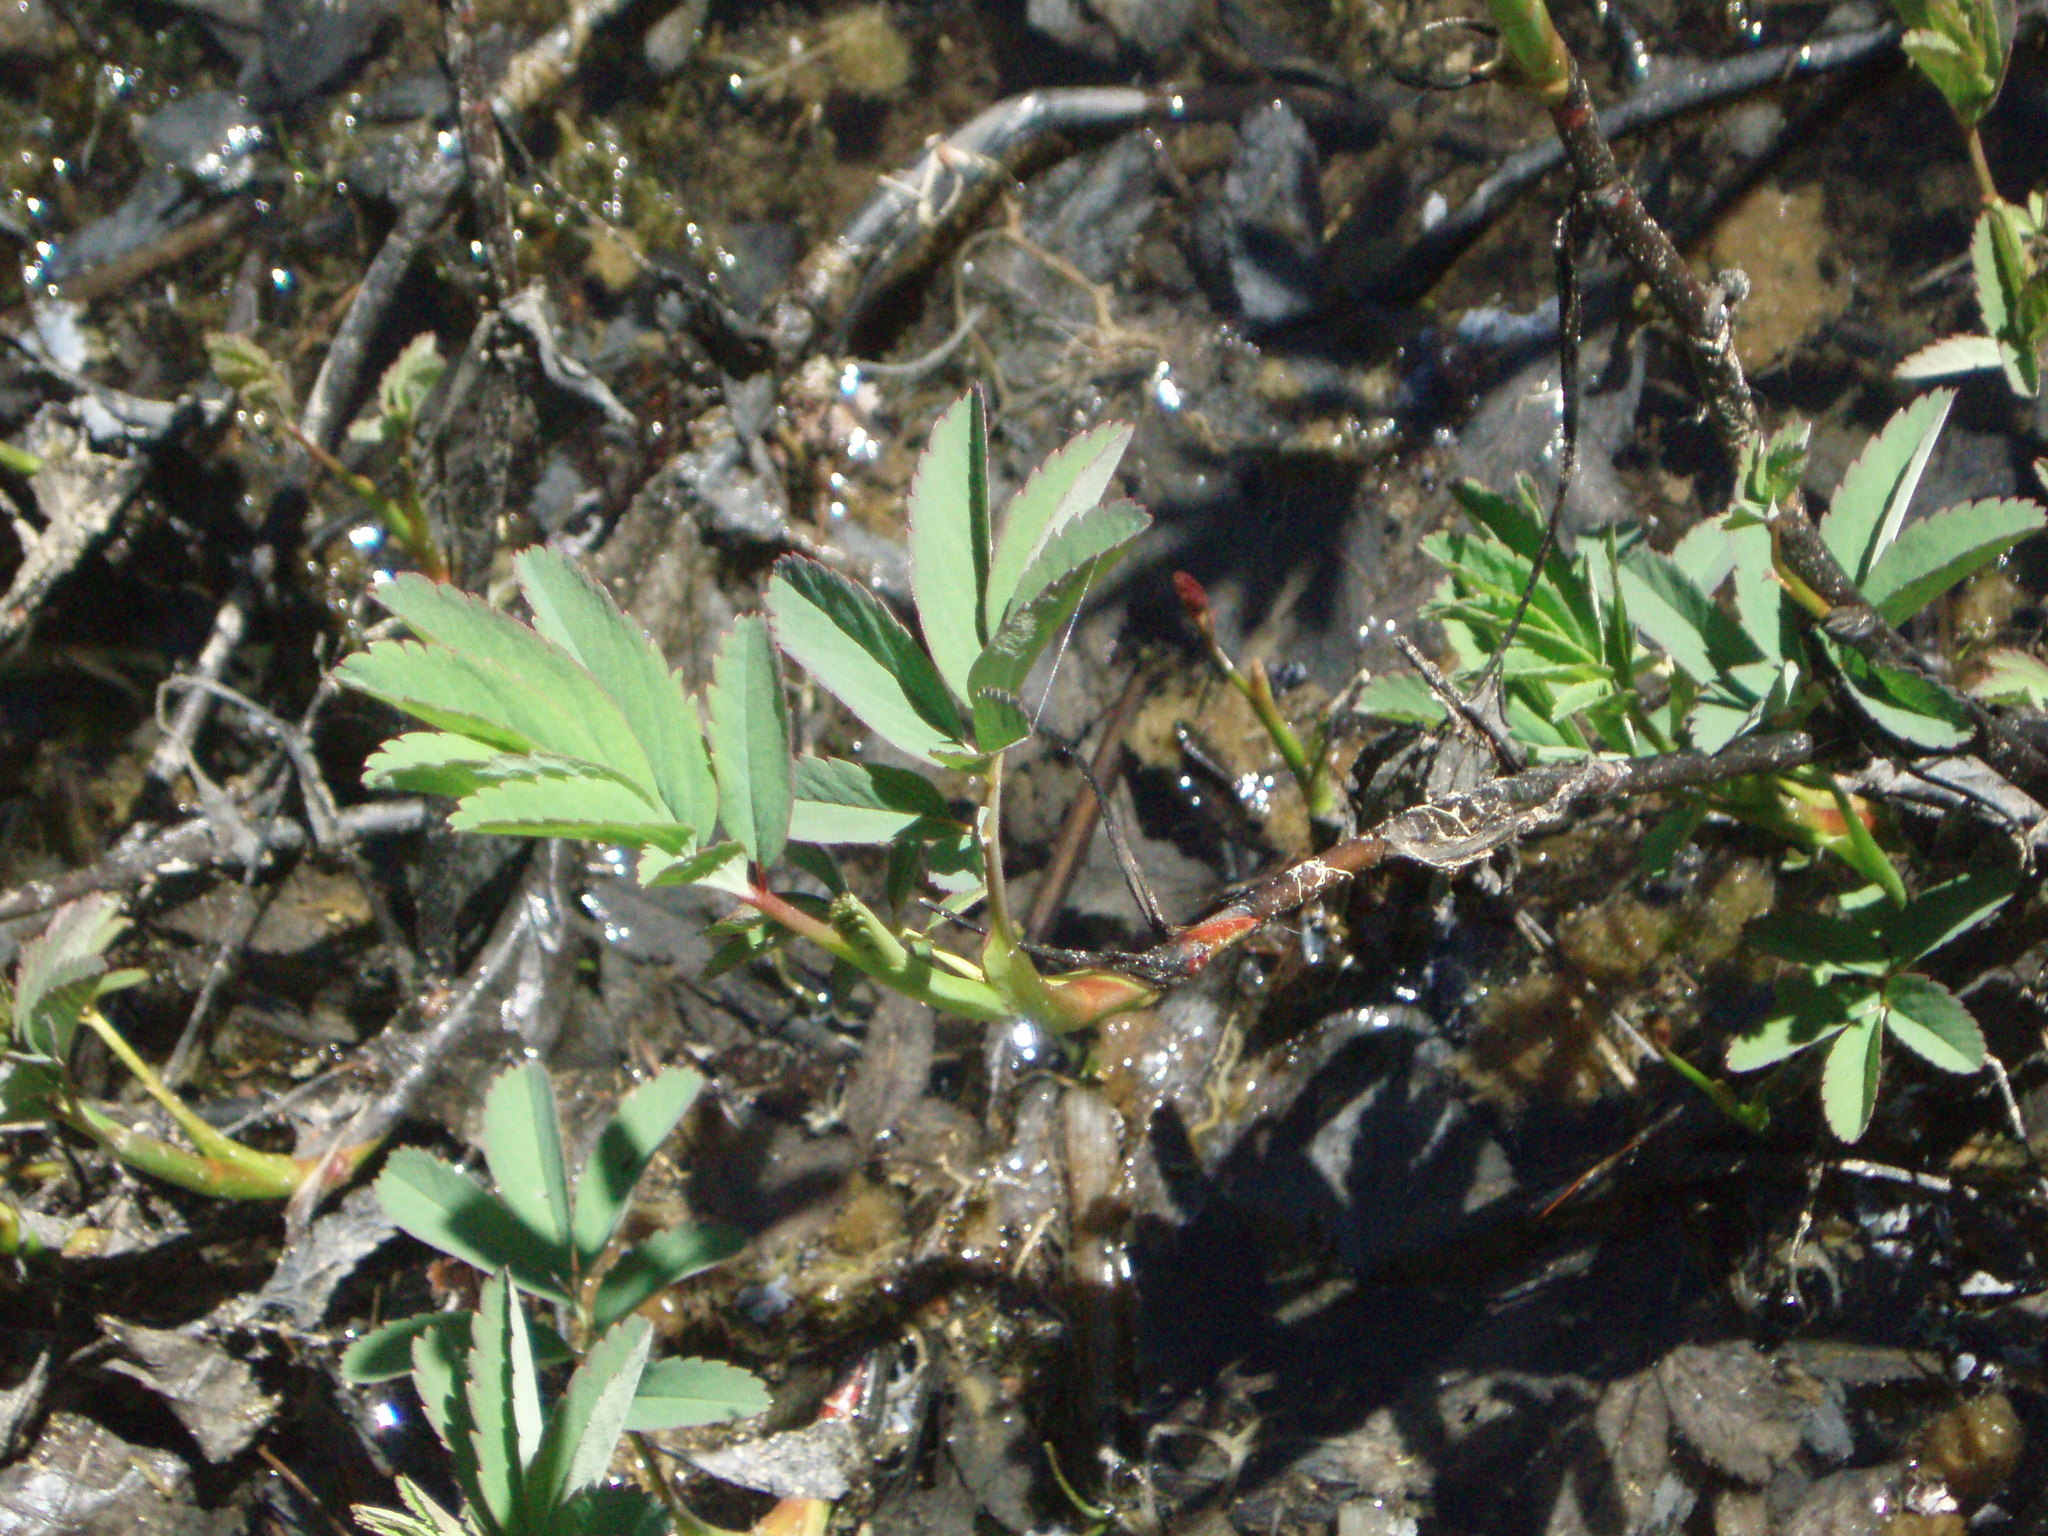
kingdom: Plantae
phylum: Tracheophyta
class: Magnoliopsida
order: Rosales
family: Rosaceae
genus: Comarum
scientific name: Comarum palustre
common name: Marsh cinquefoil
